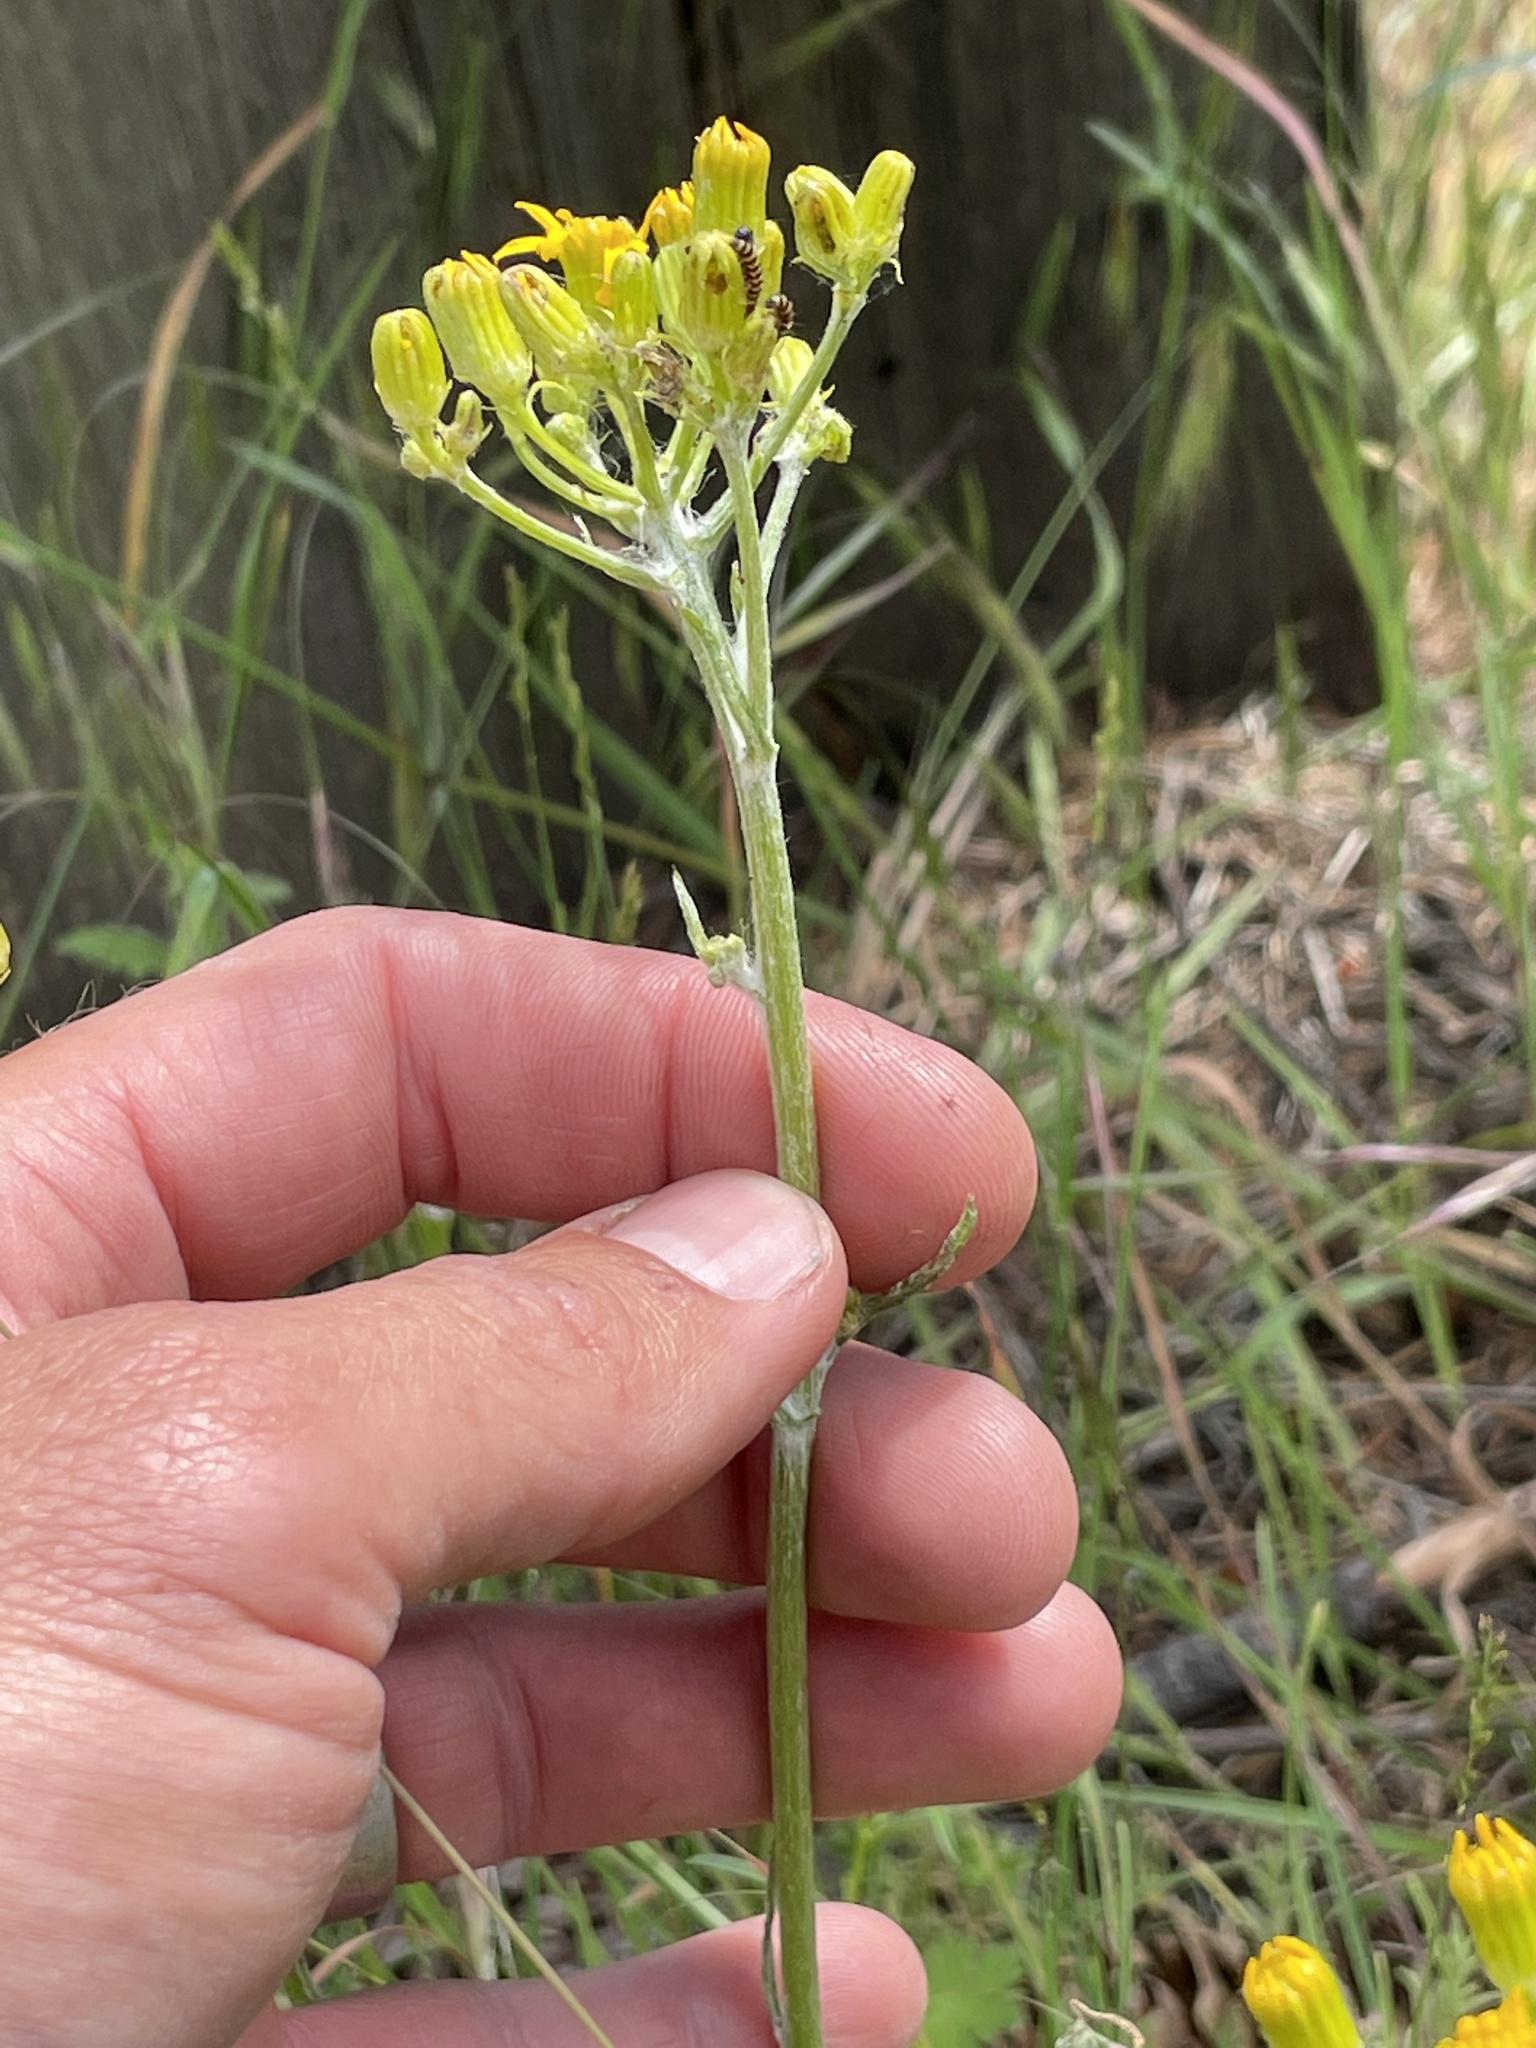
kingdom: Animalia
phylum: Arthropoda
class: Insecta
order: Lepidoptera
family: Erebidae
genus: Tyria
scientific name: Tyria jacobaeae
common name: Cinnabar
